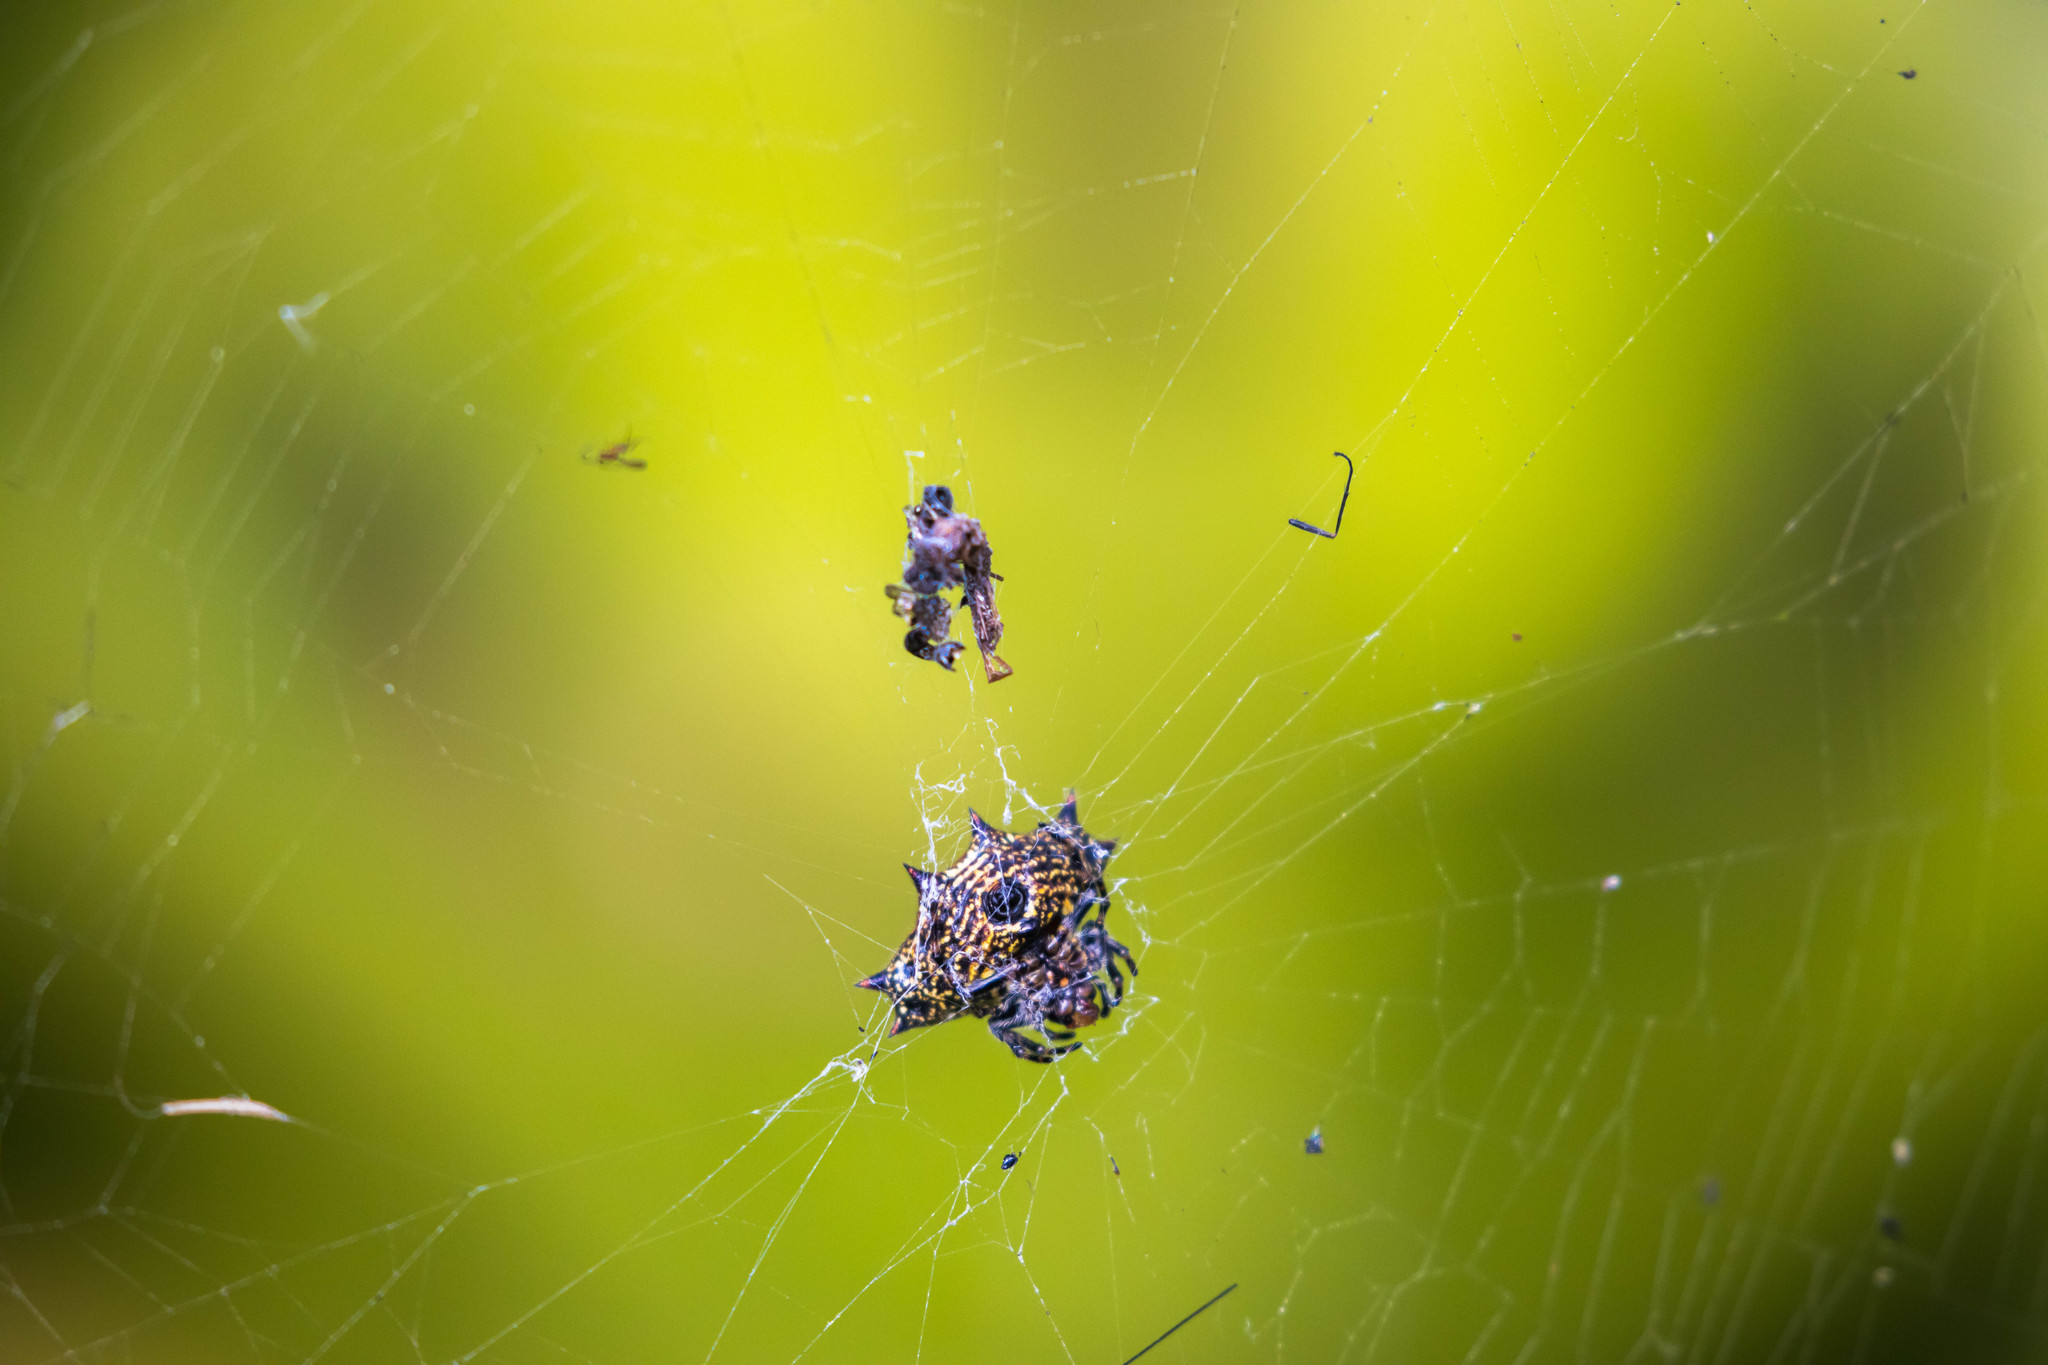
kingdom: Animalia
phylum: Arthropoda
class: Arachnida
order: Araneae
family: Araneidae
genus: Gasteracantha
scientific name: Gasteracantha cancriformis
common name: Orb weavers
